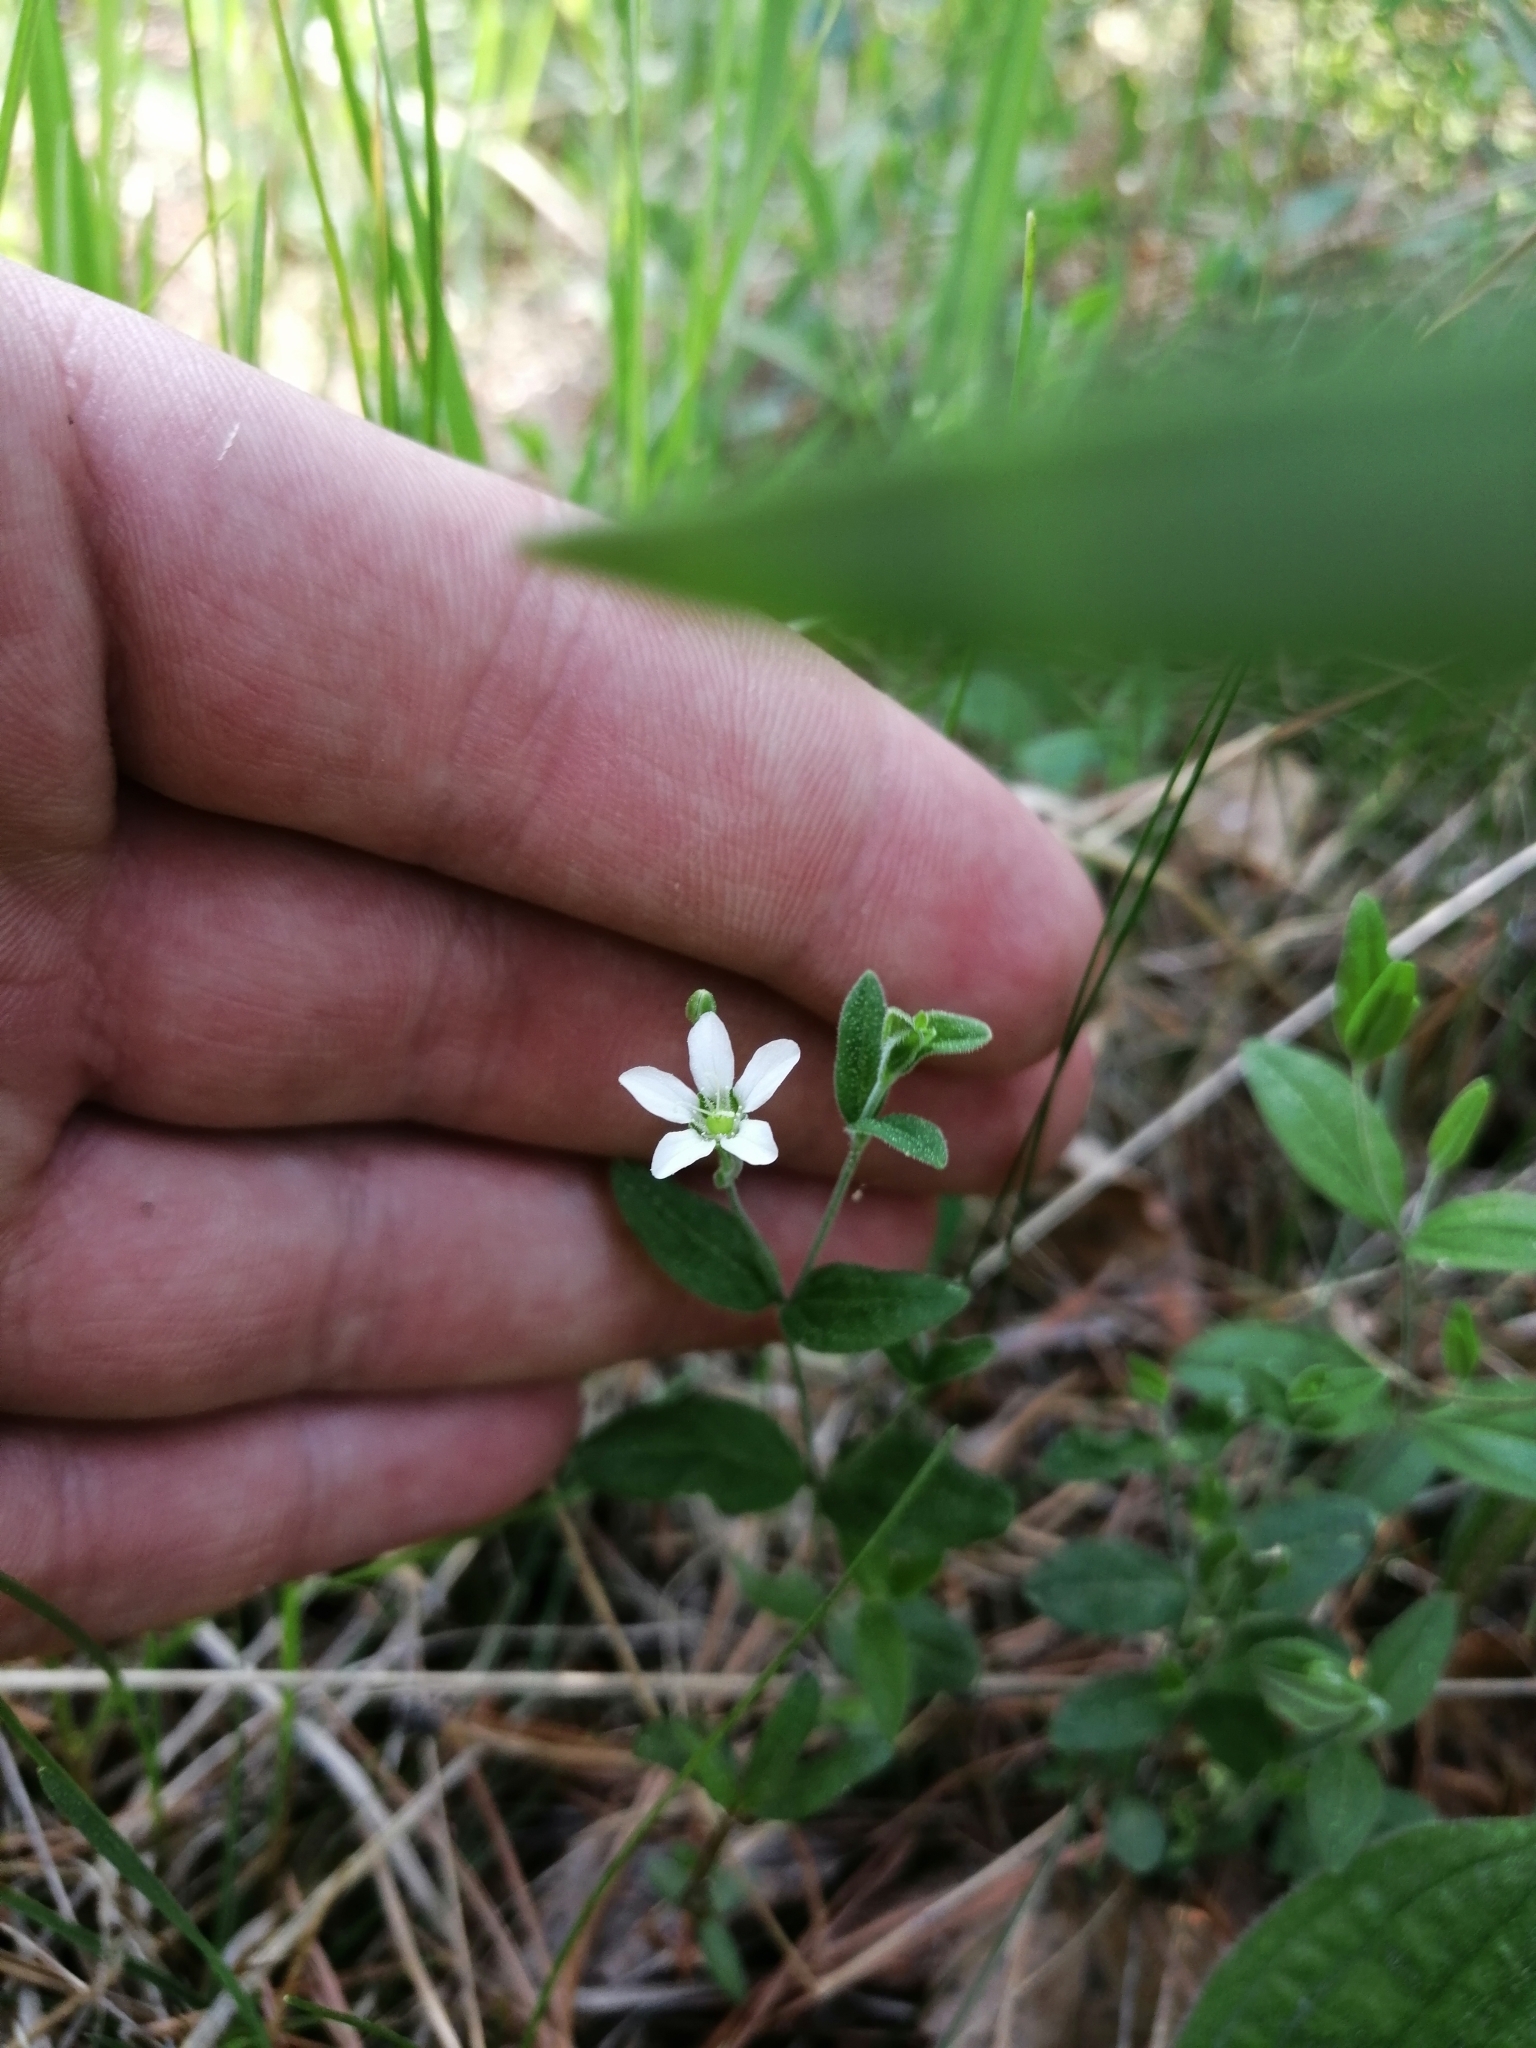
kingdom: Plantae
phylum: Tracheophyta
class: Magnoliopsida
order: Caryophyllales
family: Caryophyllaceae
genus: Moehringia
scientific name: Moehringia lateriflora
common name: Blunt-leaved sandwort
